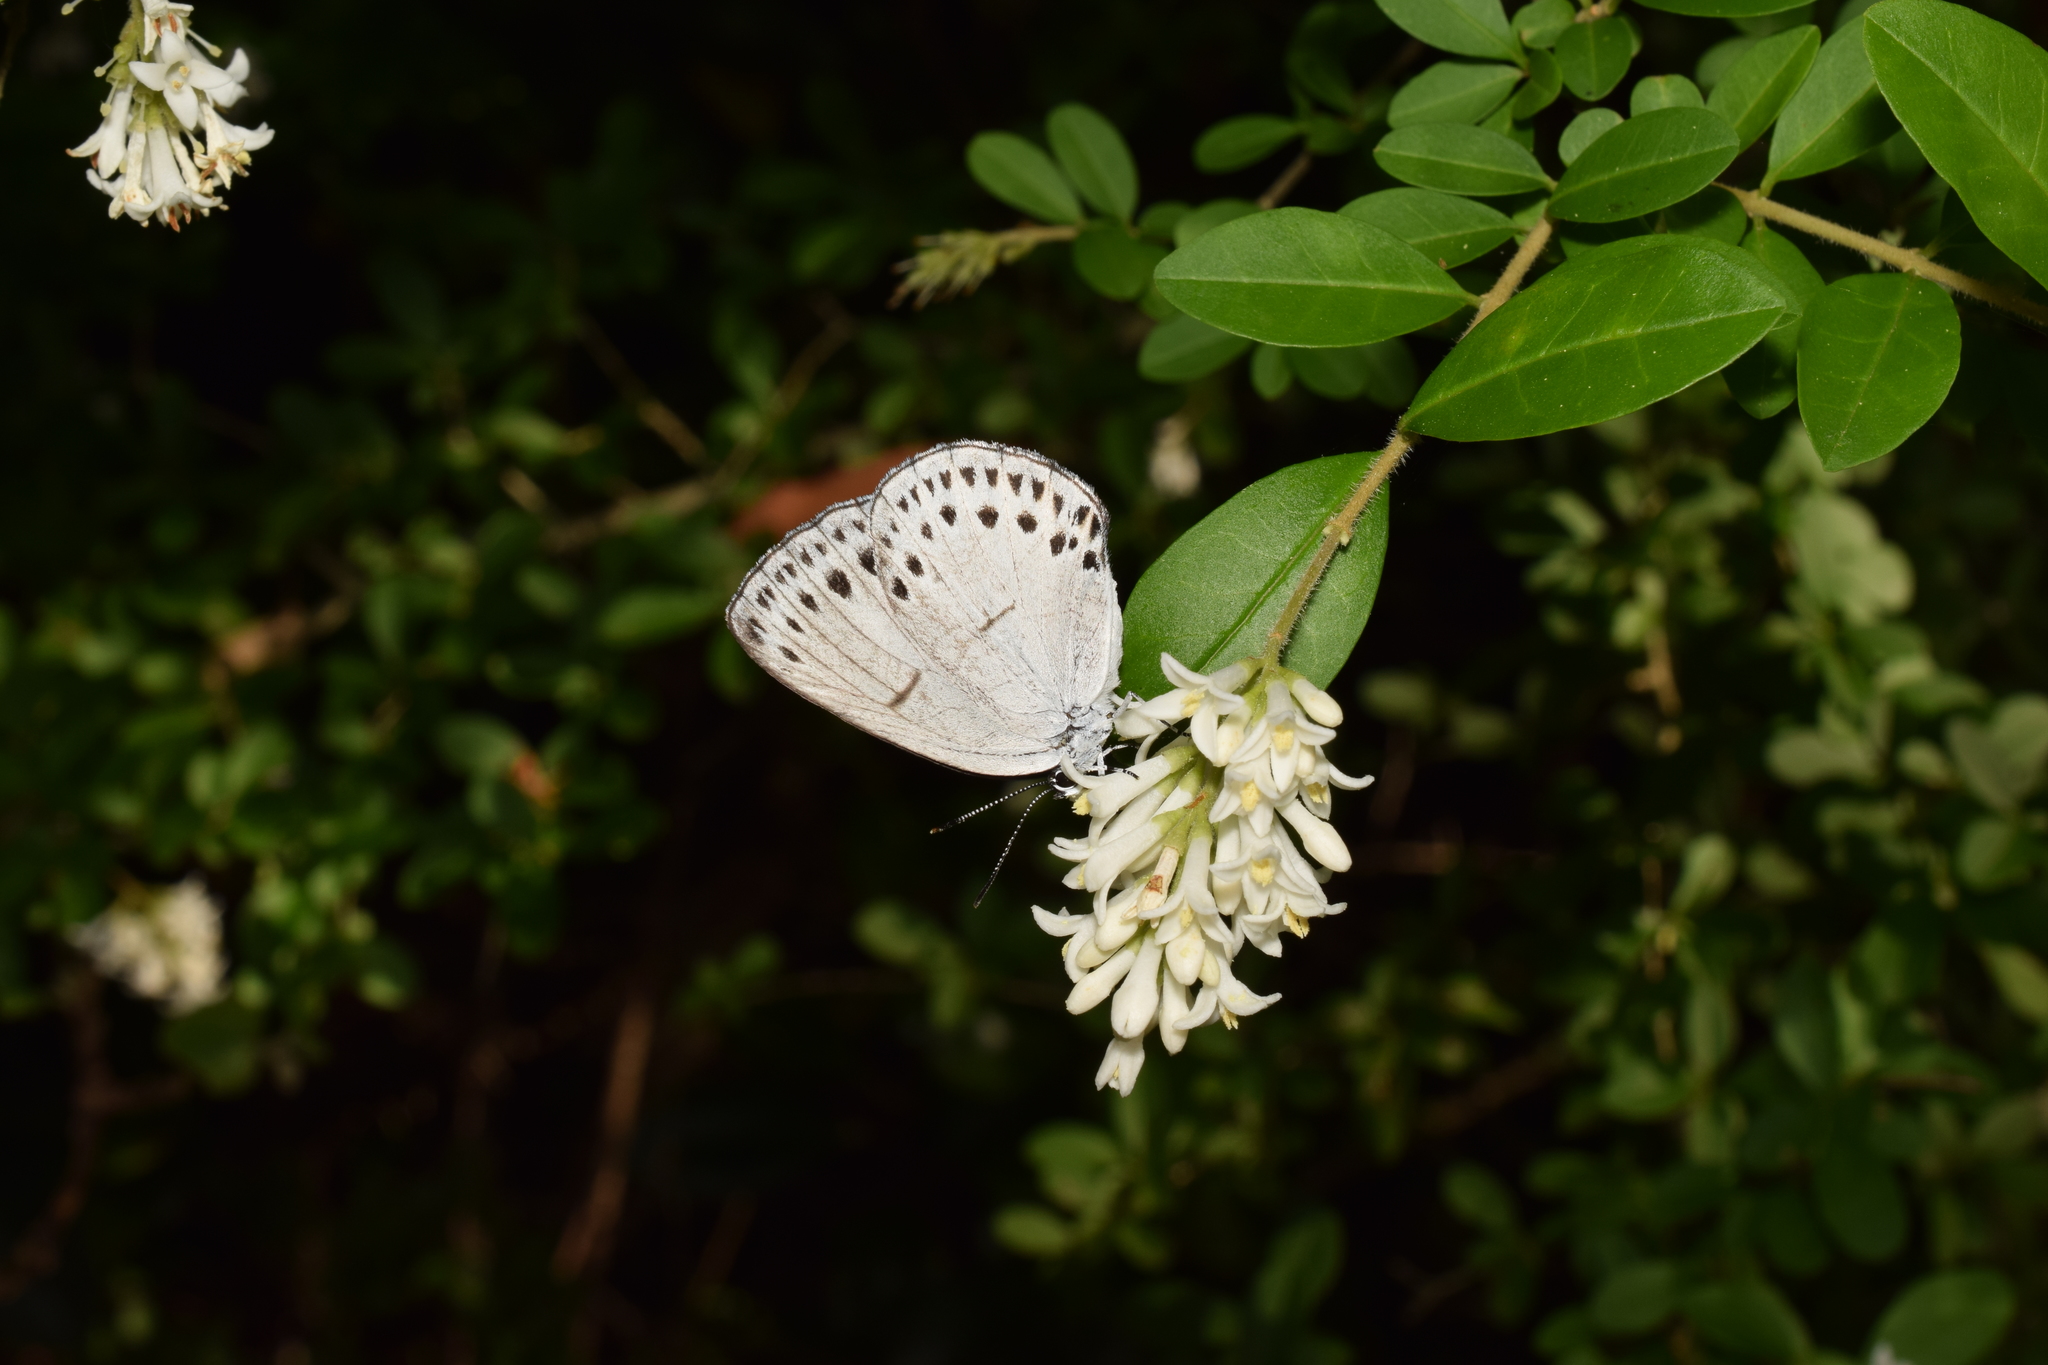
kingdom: Animalia
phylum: Arthropoda
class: Insecta
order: Lepidoptera
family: Lycaenidae
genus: Artopoetes
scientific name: Artopoetes pryeri
